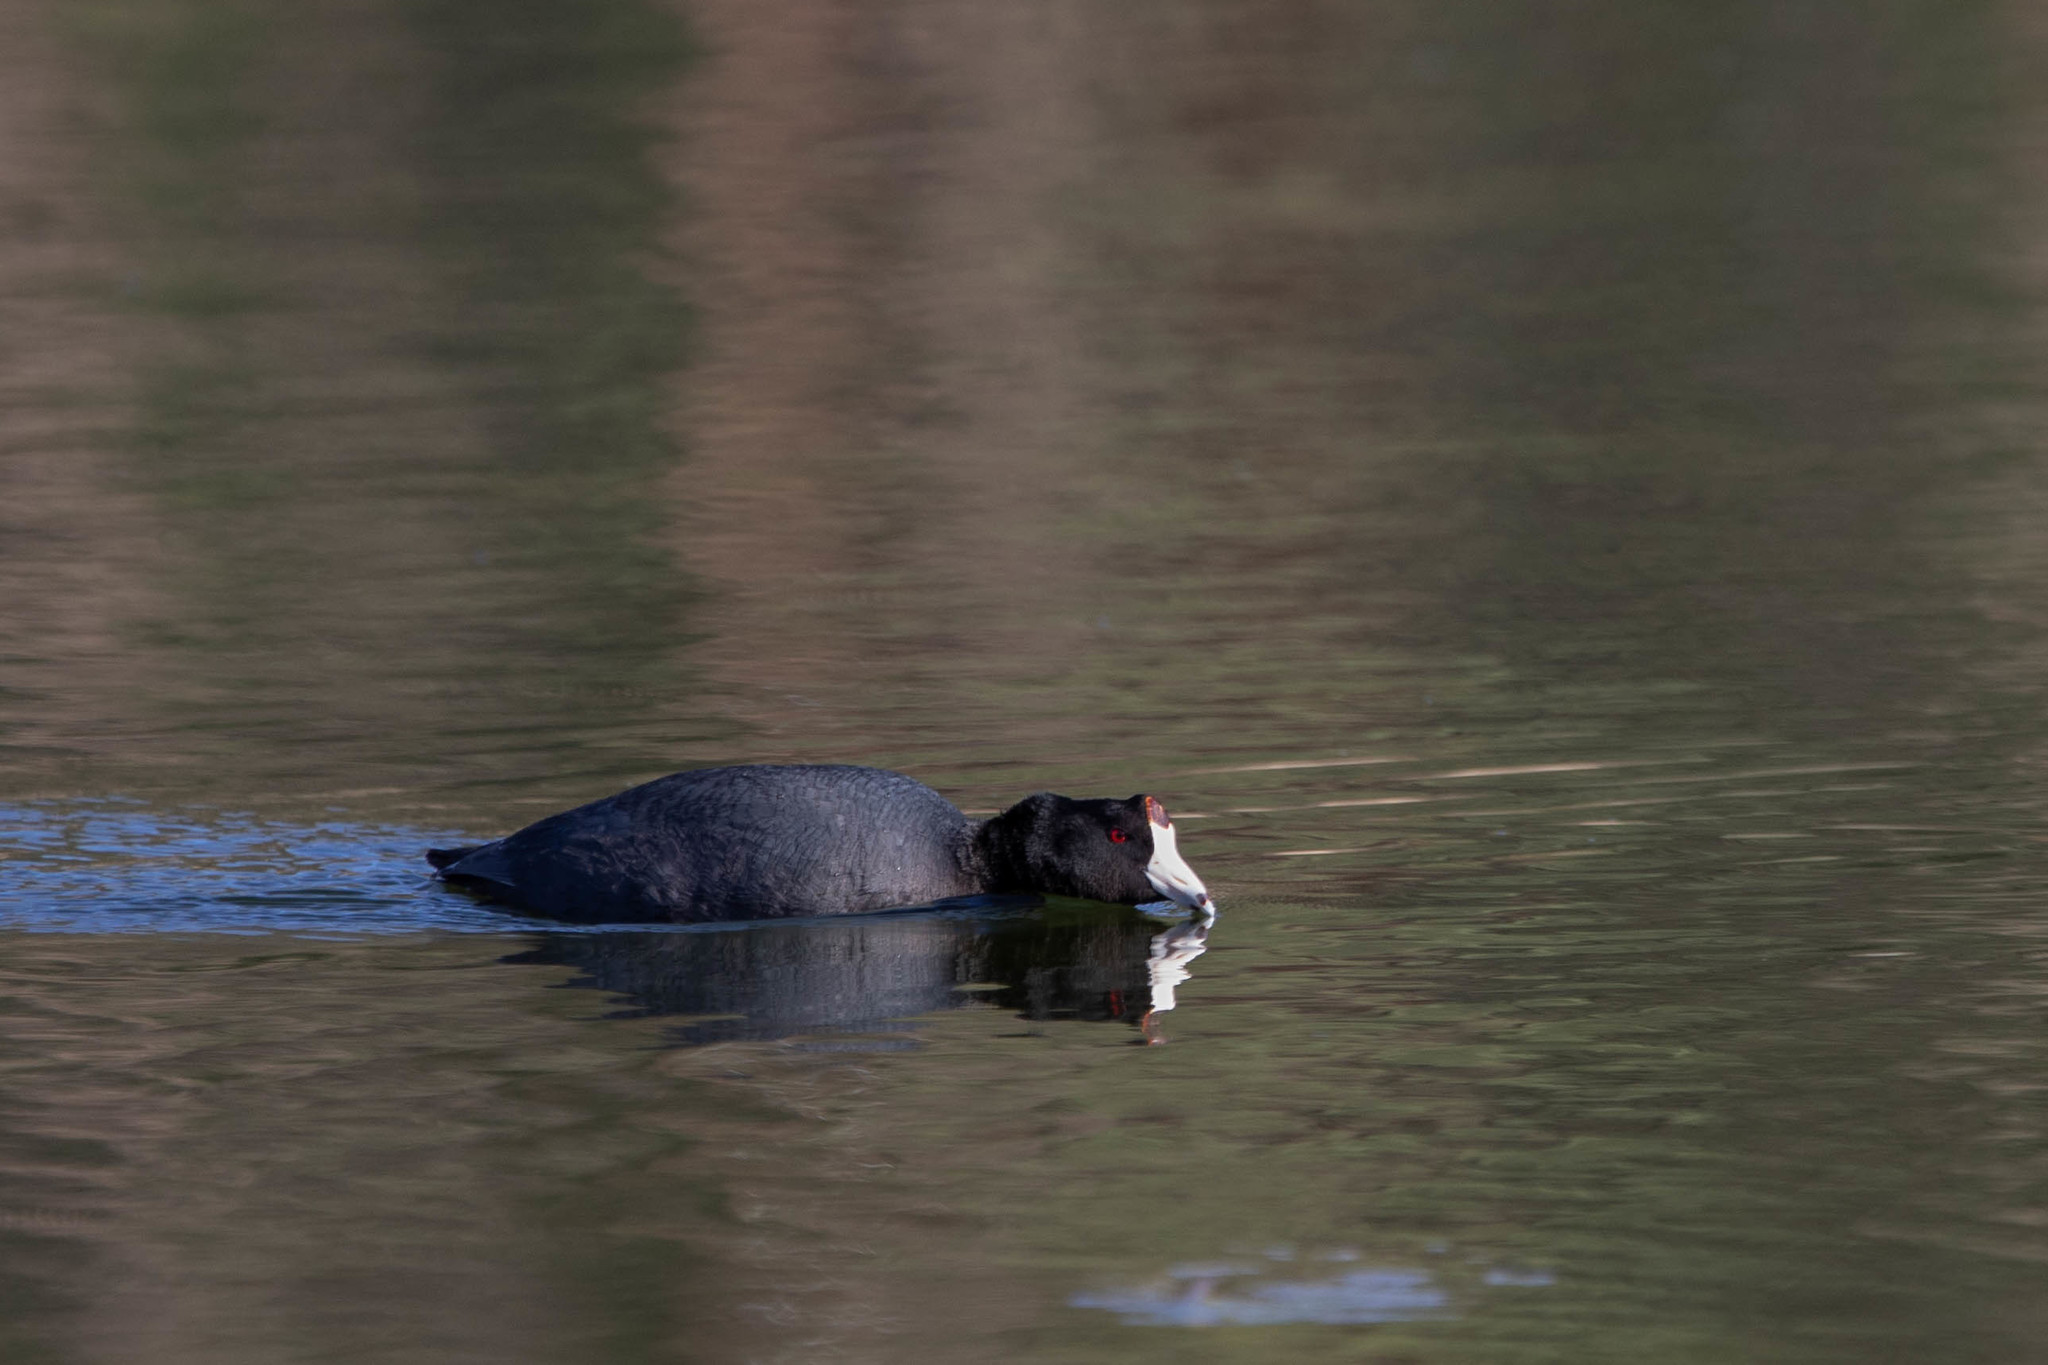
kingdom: Animalia
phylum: Chordata
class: Aves
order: Gruiformes
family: Rallidae
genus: Fulica
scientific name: Fulica americana
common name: American coot
